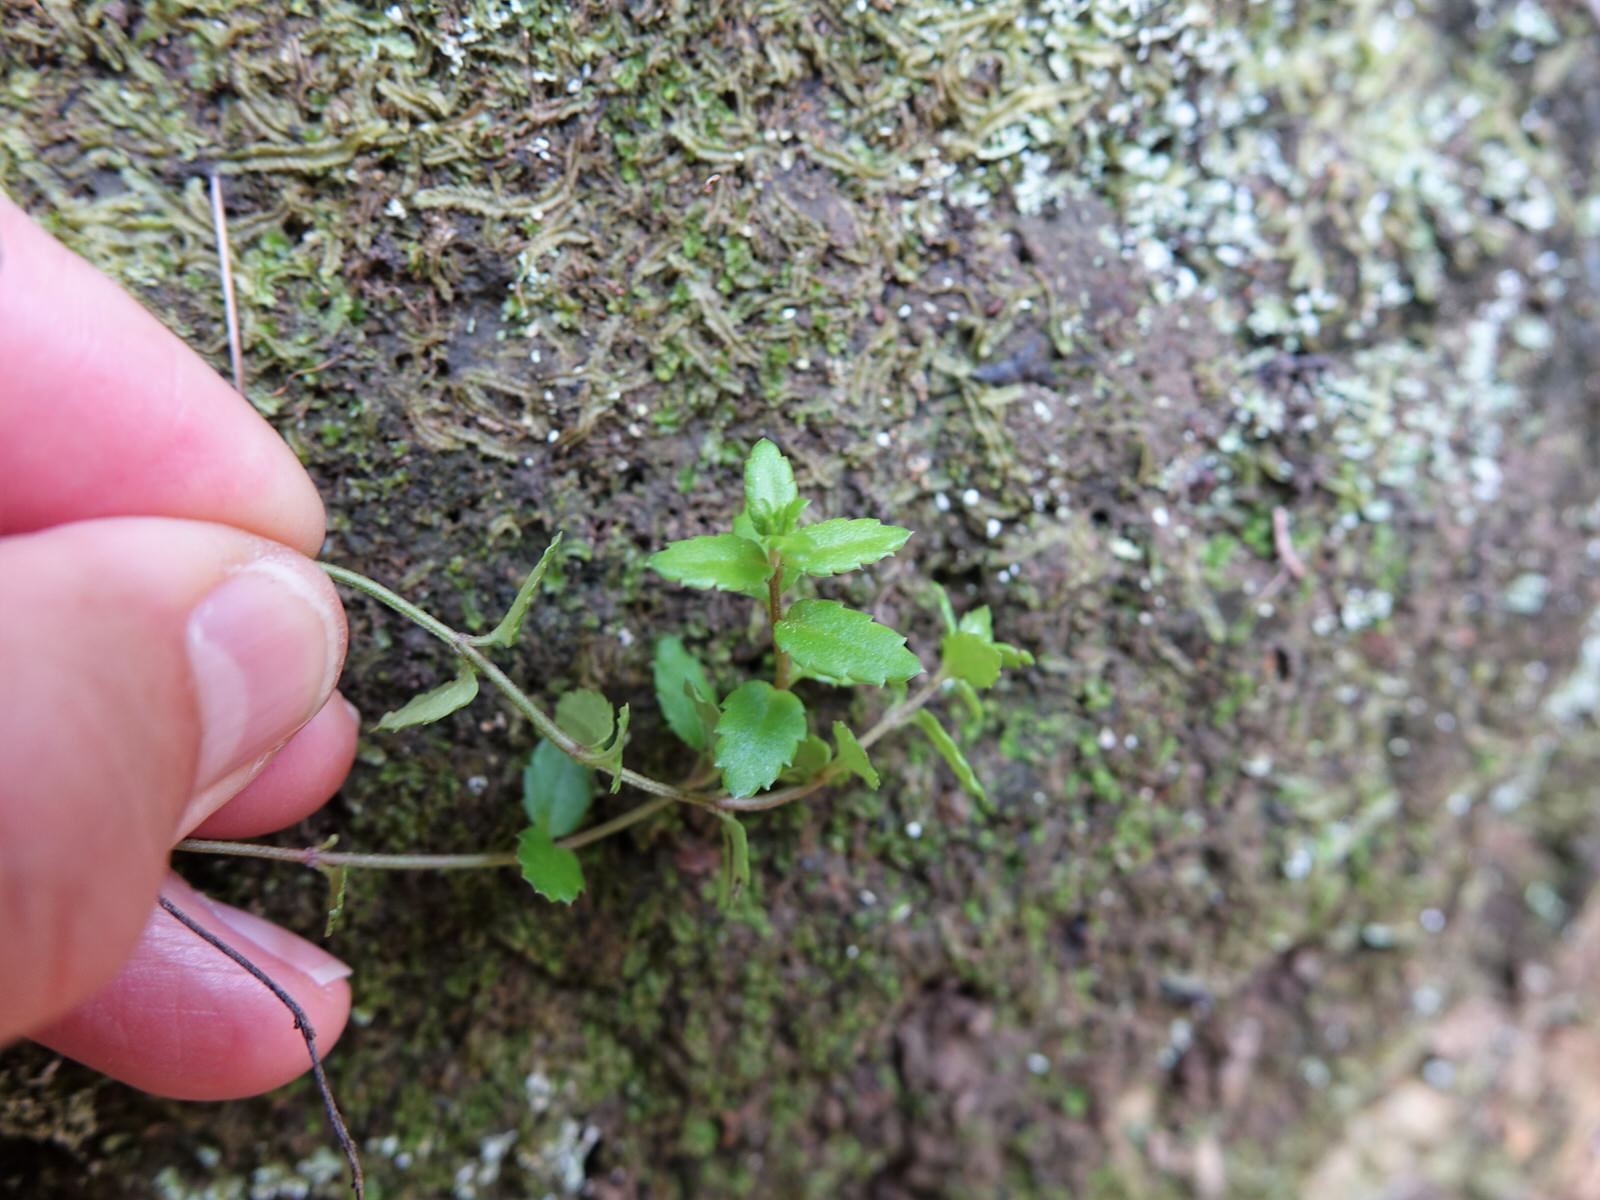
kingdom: Plantae
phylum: Tracheophyta
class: Magnoliopsida
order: Saxifragales
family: Haloragaceae
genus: Gonocarpus
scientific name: Gonocarpus incanus
